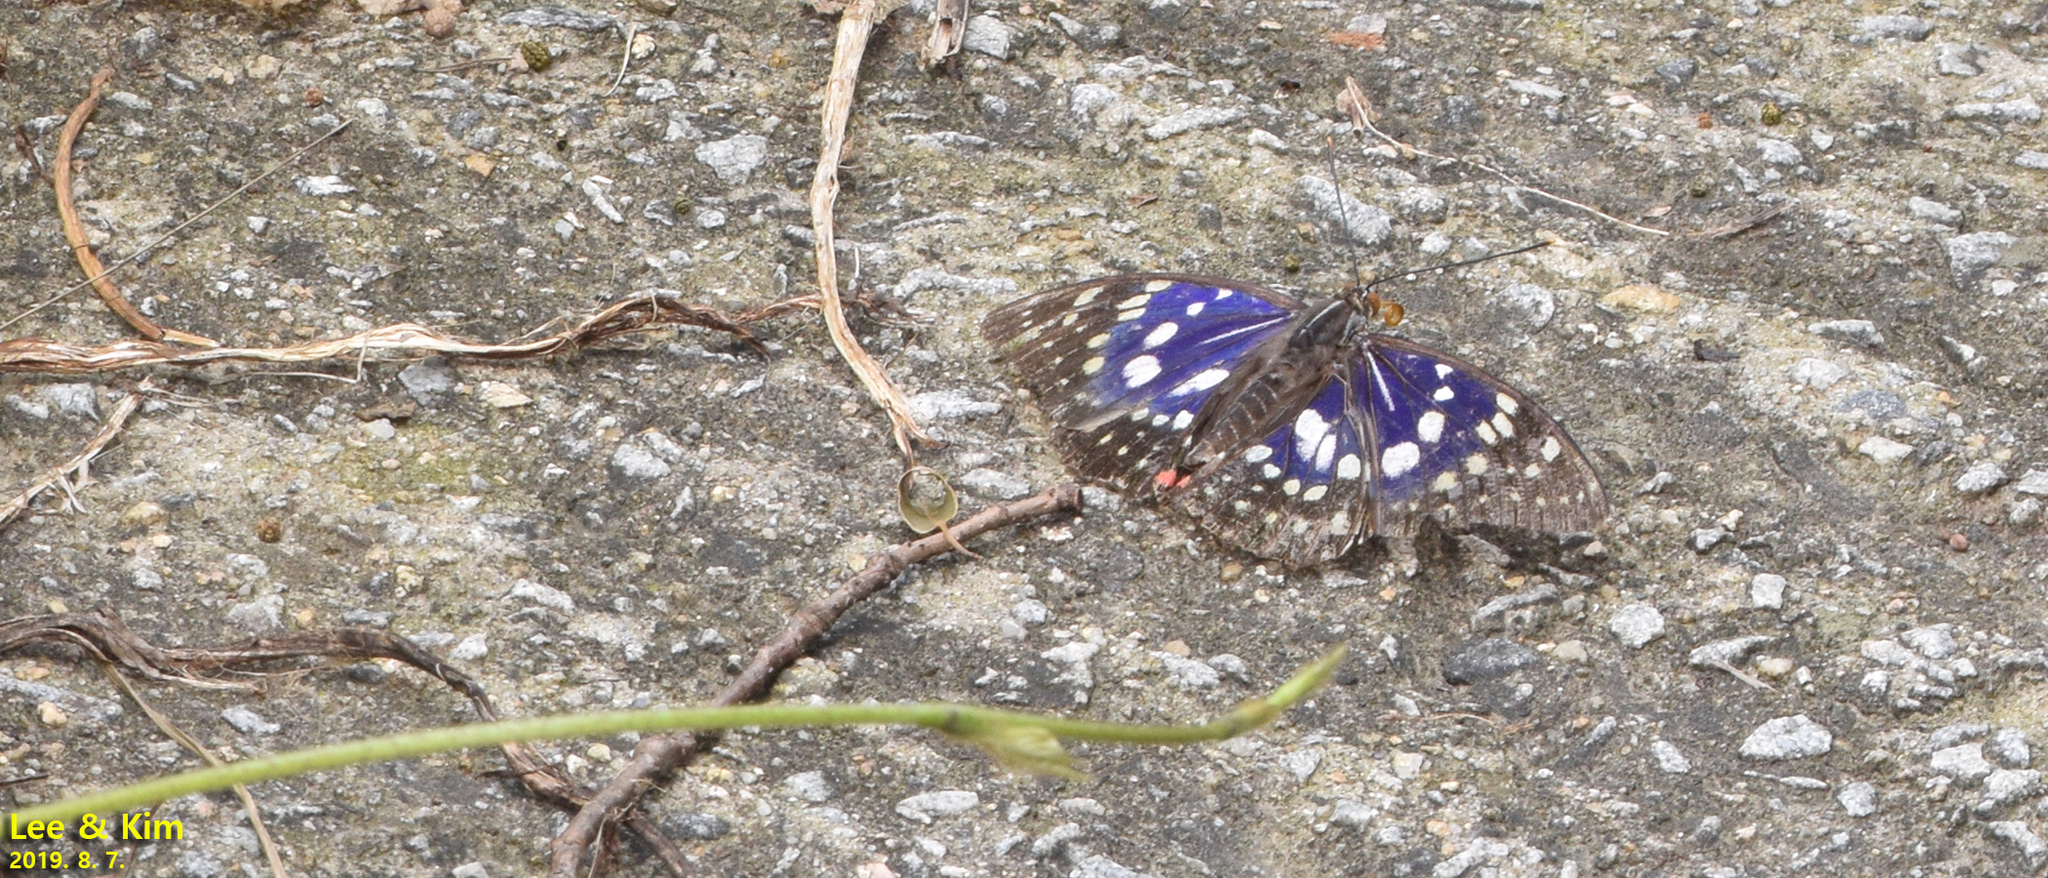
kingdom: Animalia
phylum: Arthropoda
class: Insecta
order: Lepidoptera
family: Nymphalidae
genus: Sasakia
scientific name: Sasakia charonda
